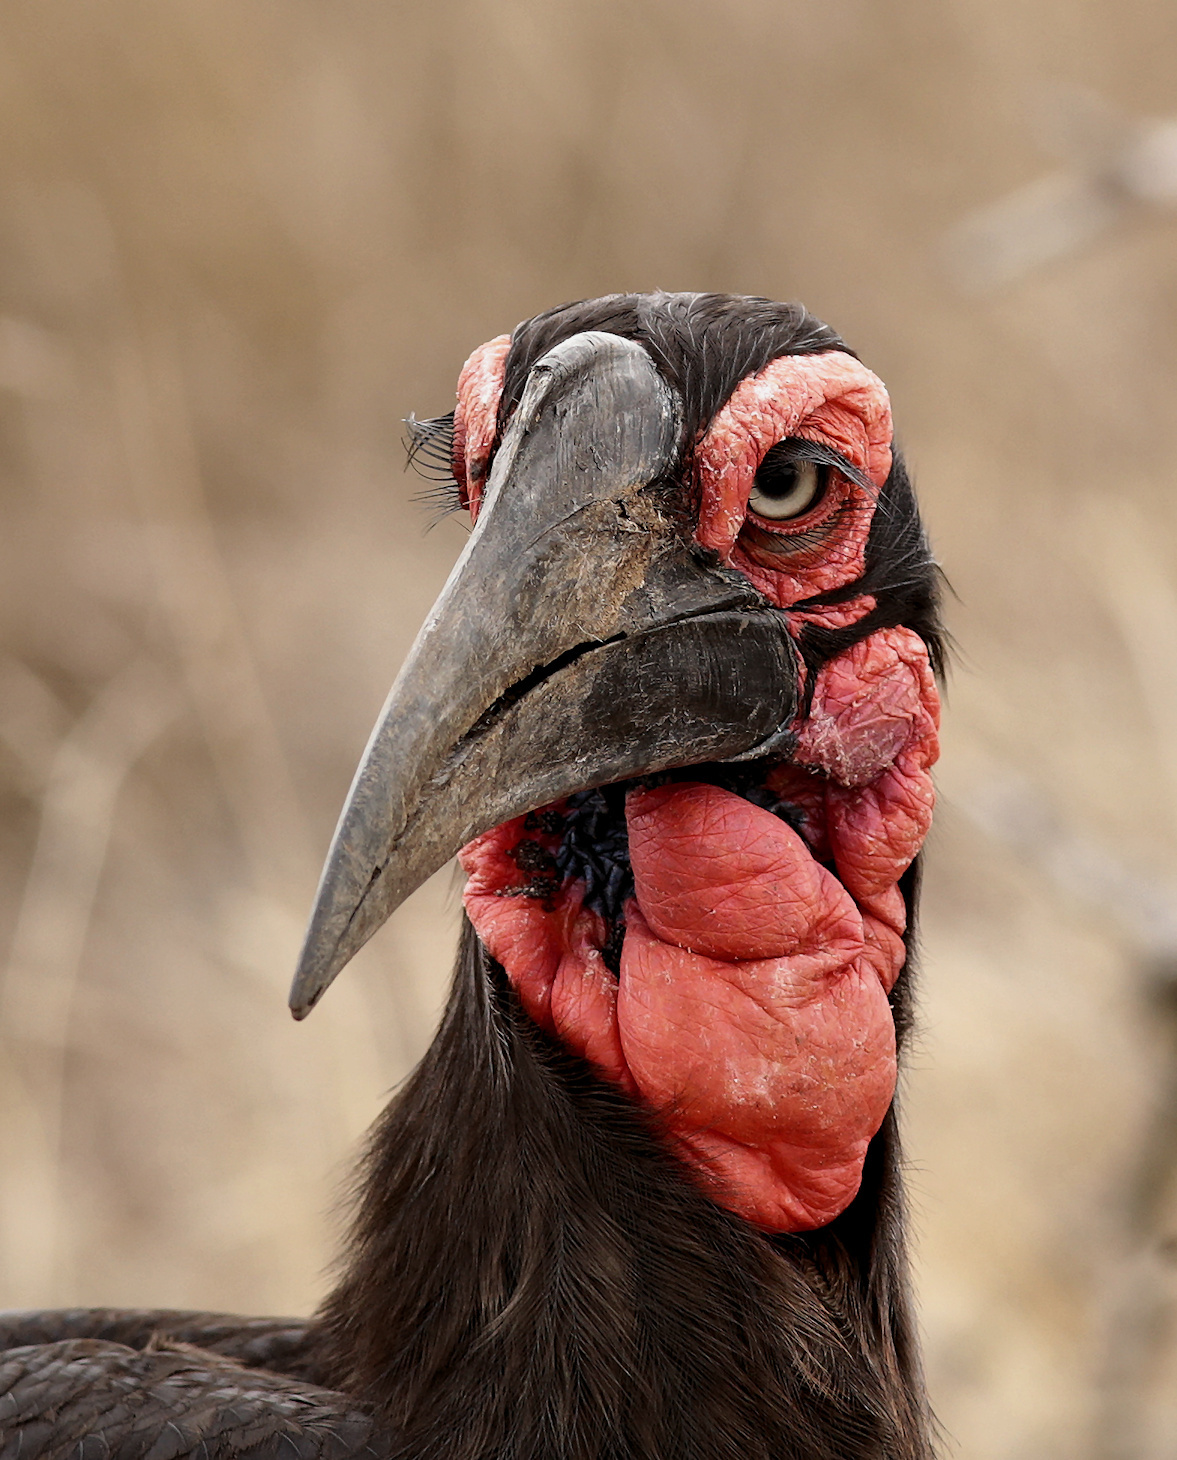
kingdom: Animalia
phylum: Chordata
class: Aves
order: Bucerotiformes
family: Bucorvidae
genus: Bucorvus
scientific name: Bucorvus leadbeateri
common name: Southern ground-hornbill
